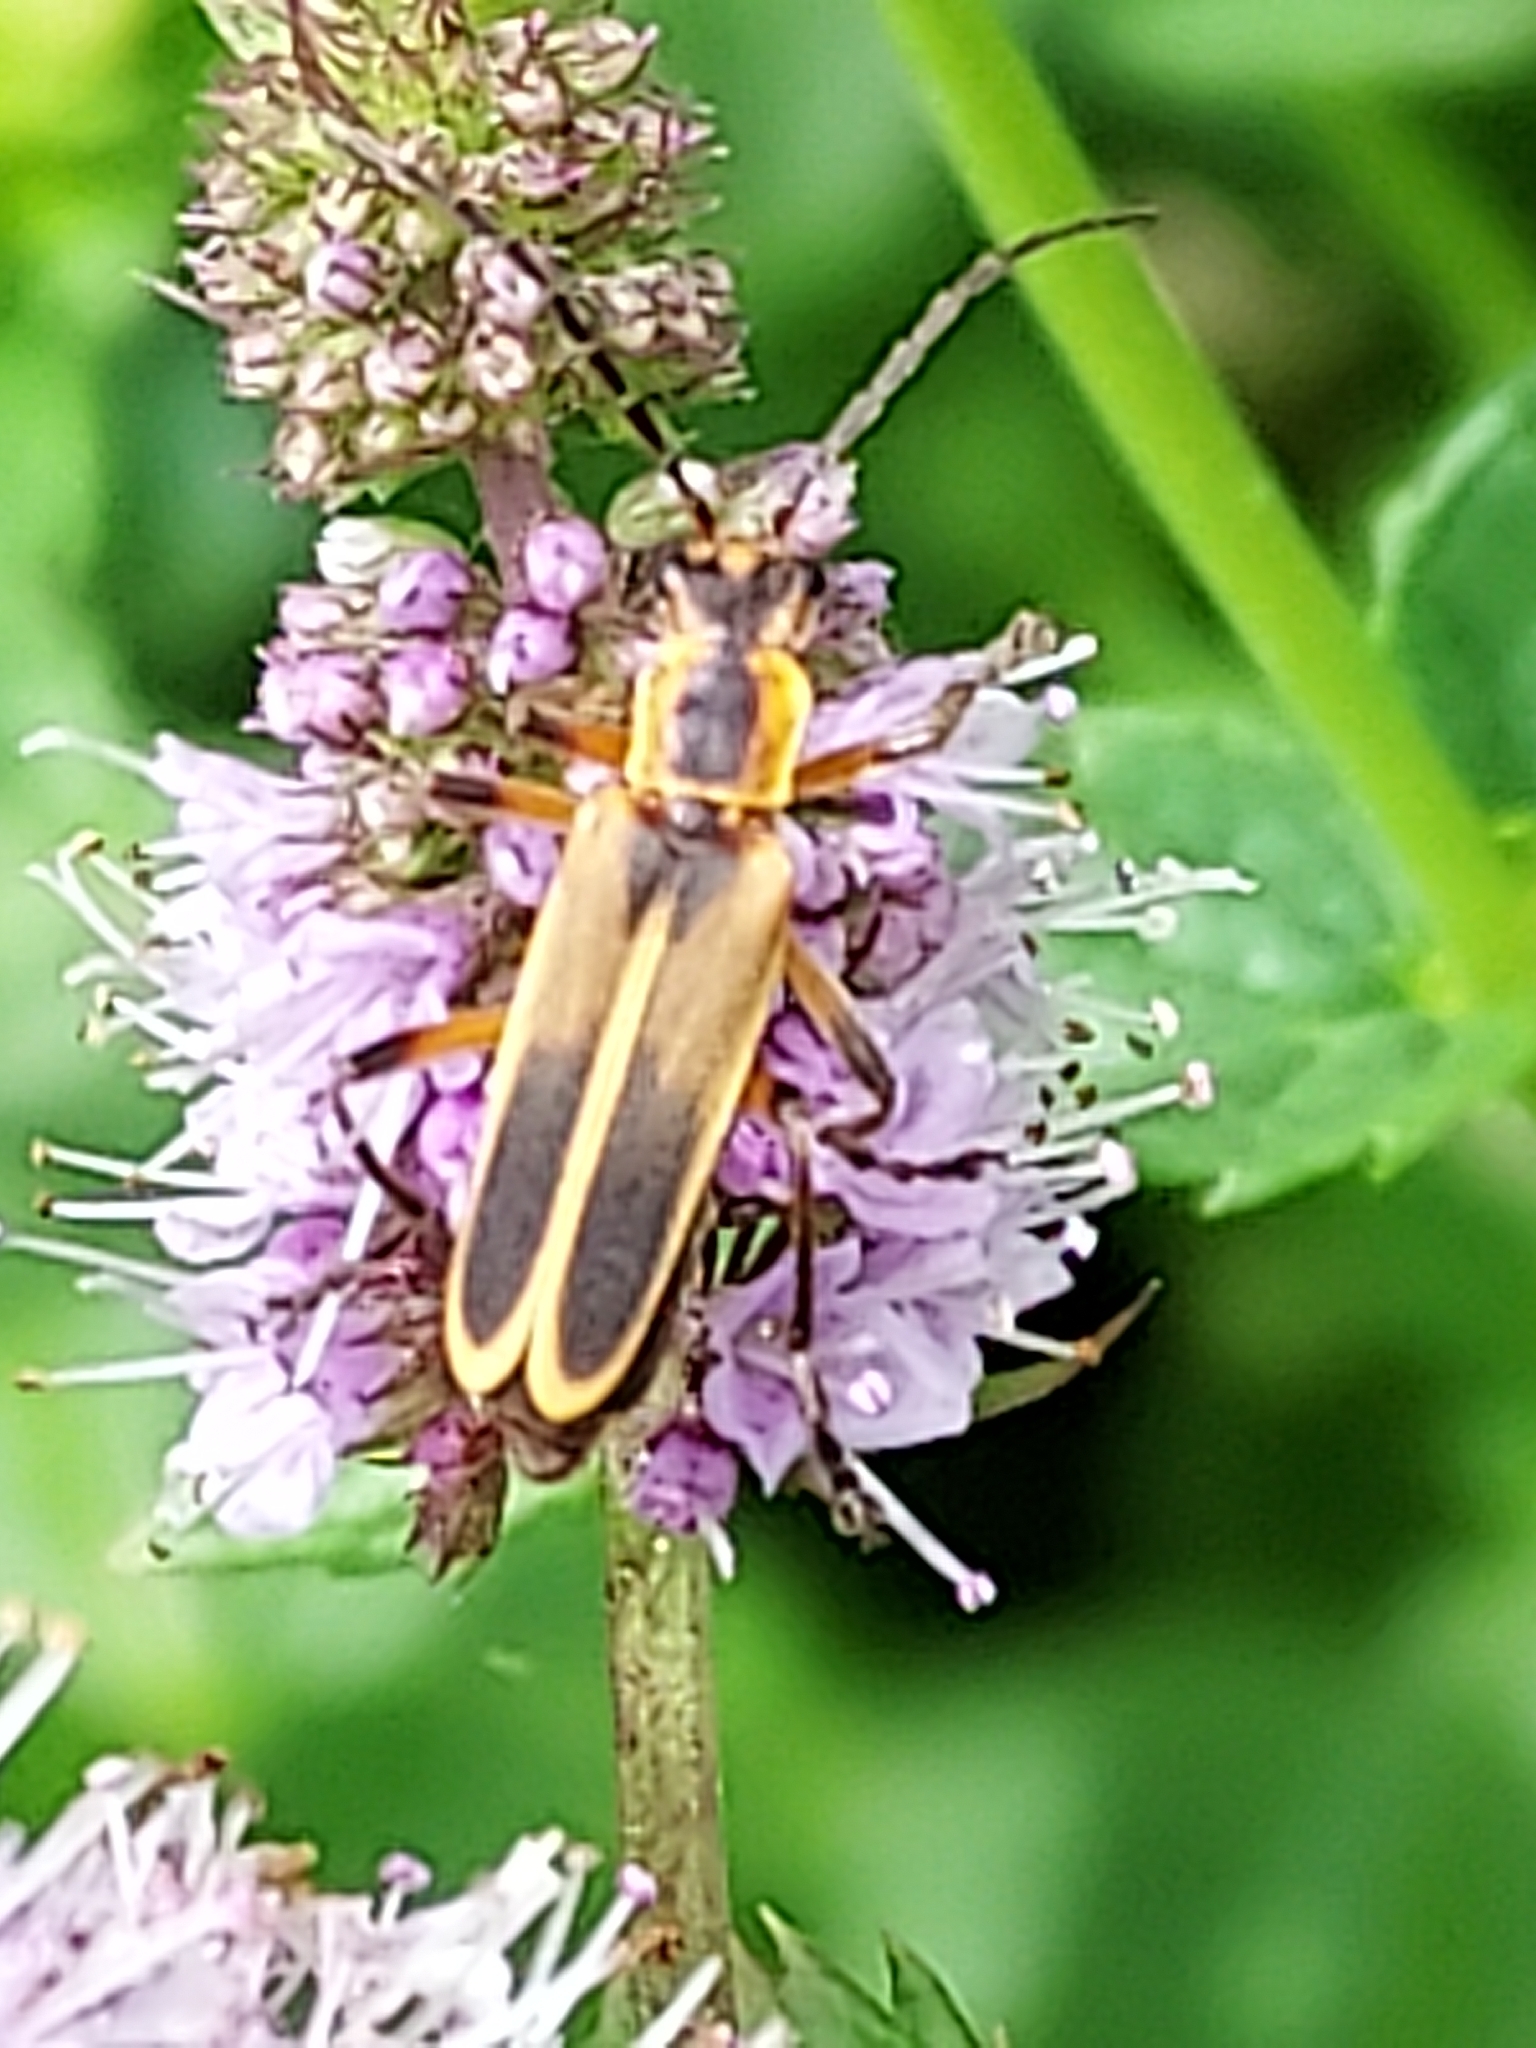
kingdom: Animalia
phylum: Arthropoda
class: Insecta
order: Coleoptera
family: Cantharidae
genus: Chauliognathus
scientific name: Chauliognathus marginatus
